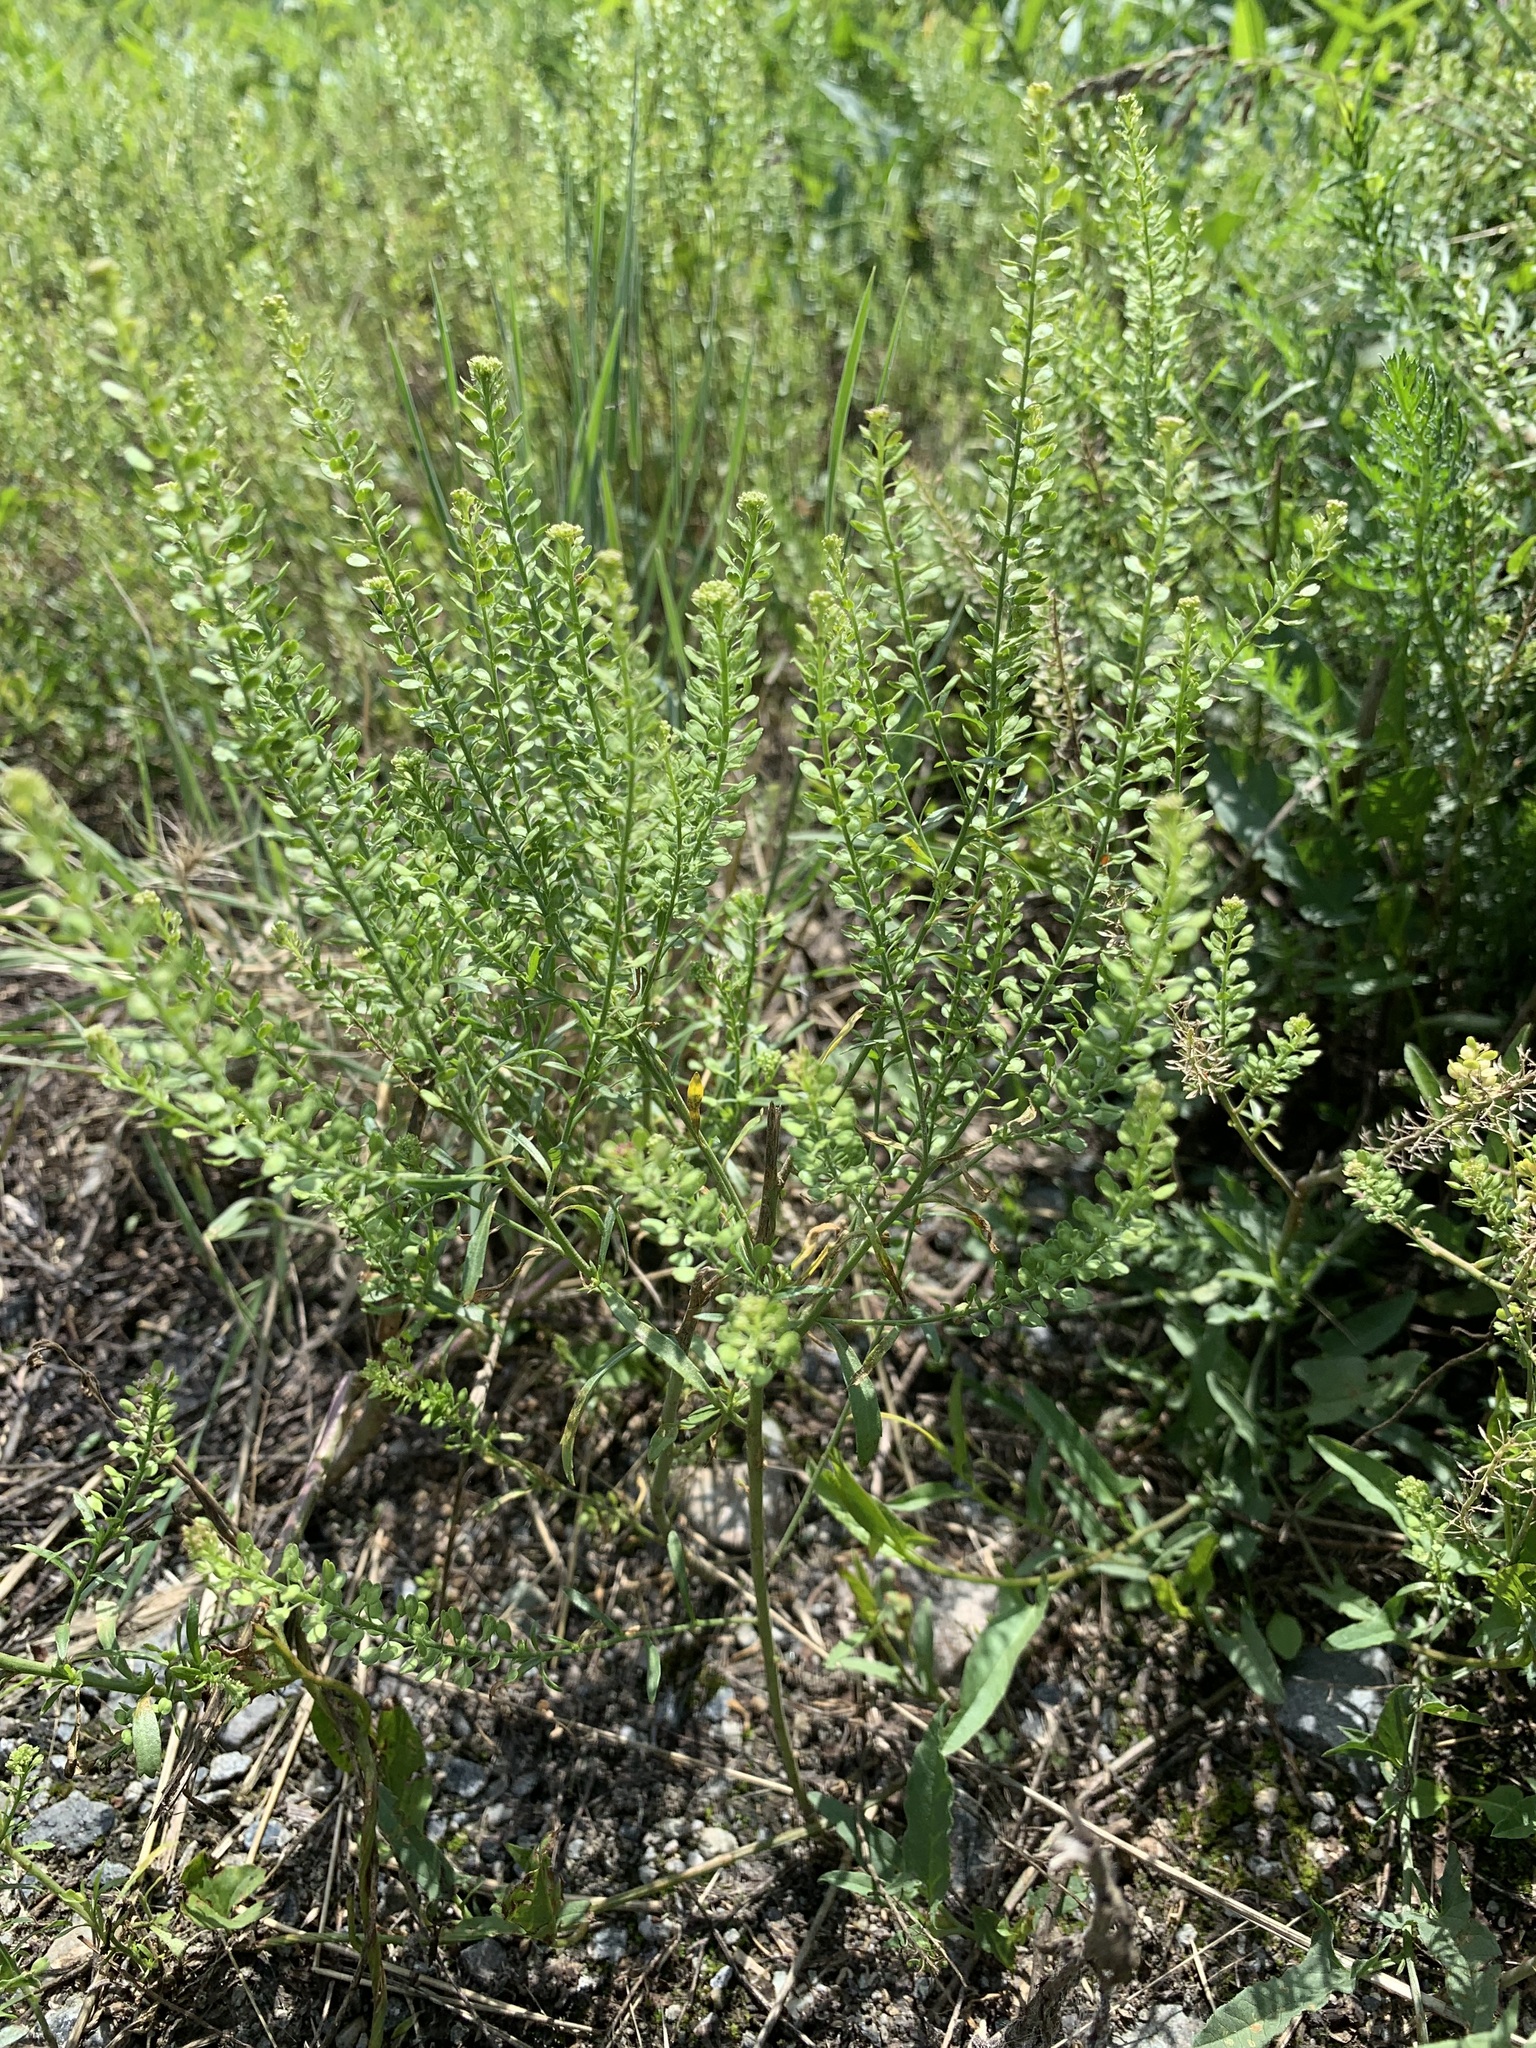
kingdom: Plantae
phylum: Tracheophyta
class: Magnoliopsida
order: Brassicales
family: Brassicaceae
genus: Lepidium
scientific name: Lepidium densiflorum
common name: Miner's pepperwort
